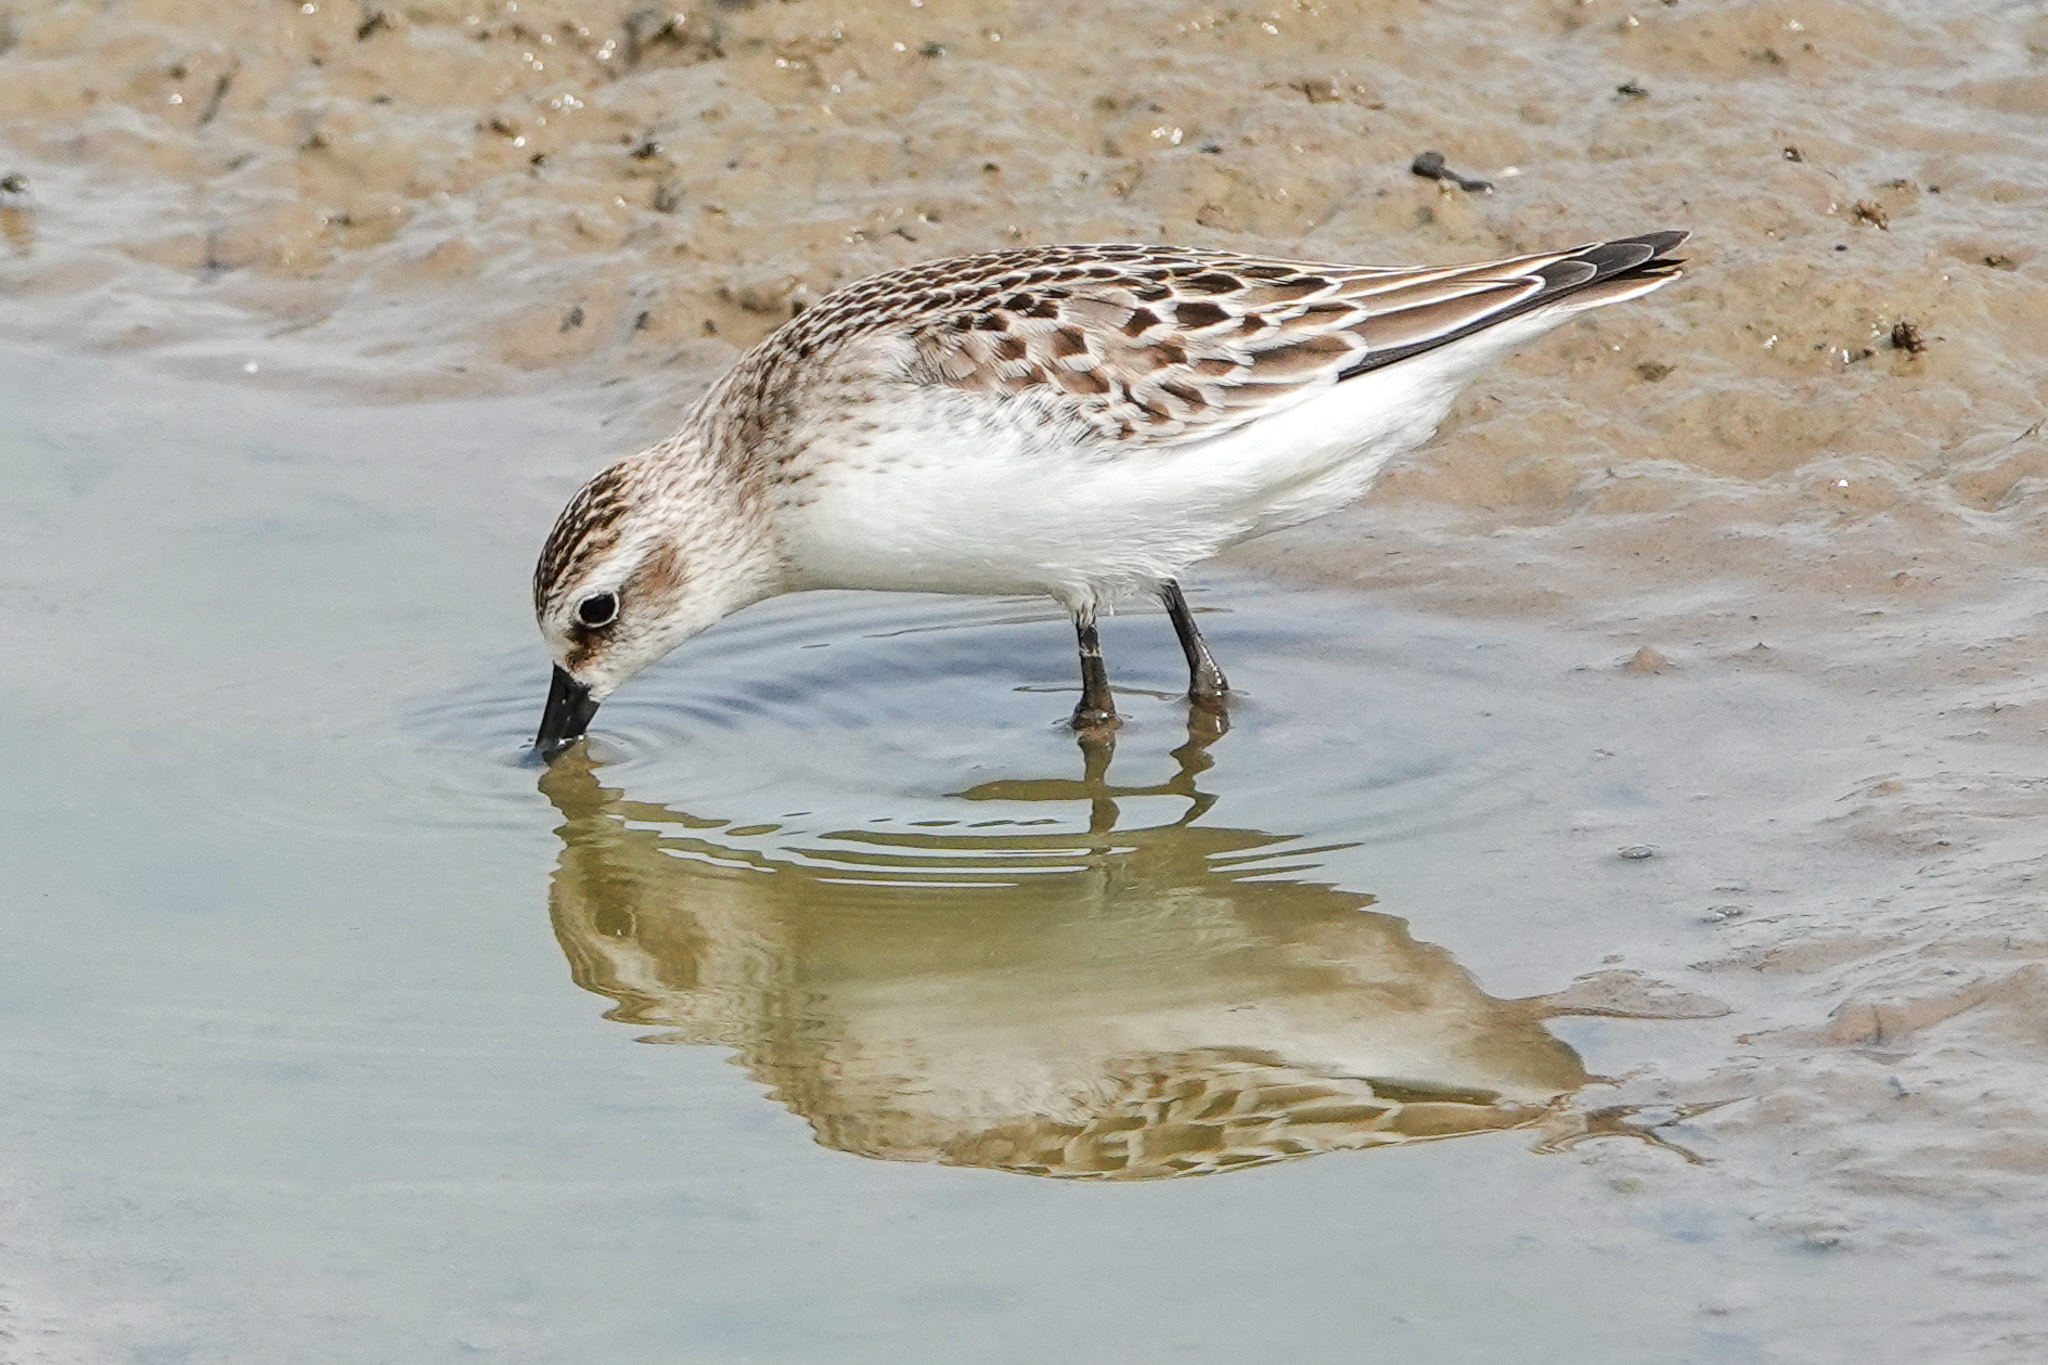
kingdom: Animalia
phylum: Chordata
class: Aves
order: Charadriiformes
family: Scolopacidae
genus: Calidris
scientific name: Calidris pusilla
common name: Semipalmated sandpiper
